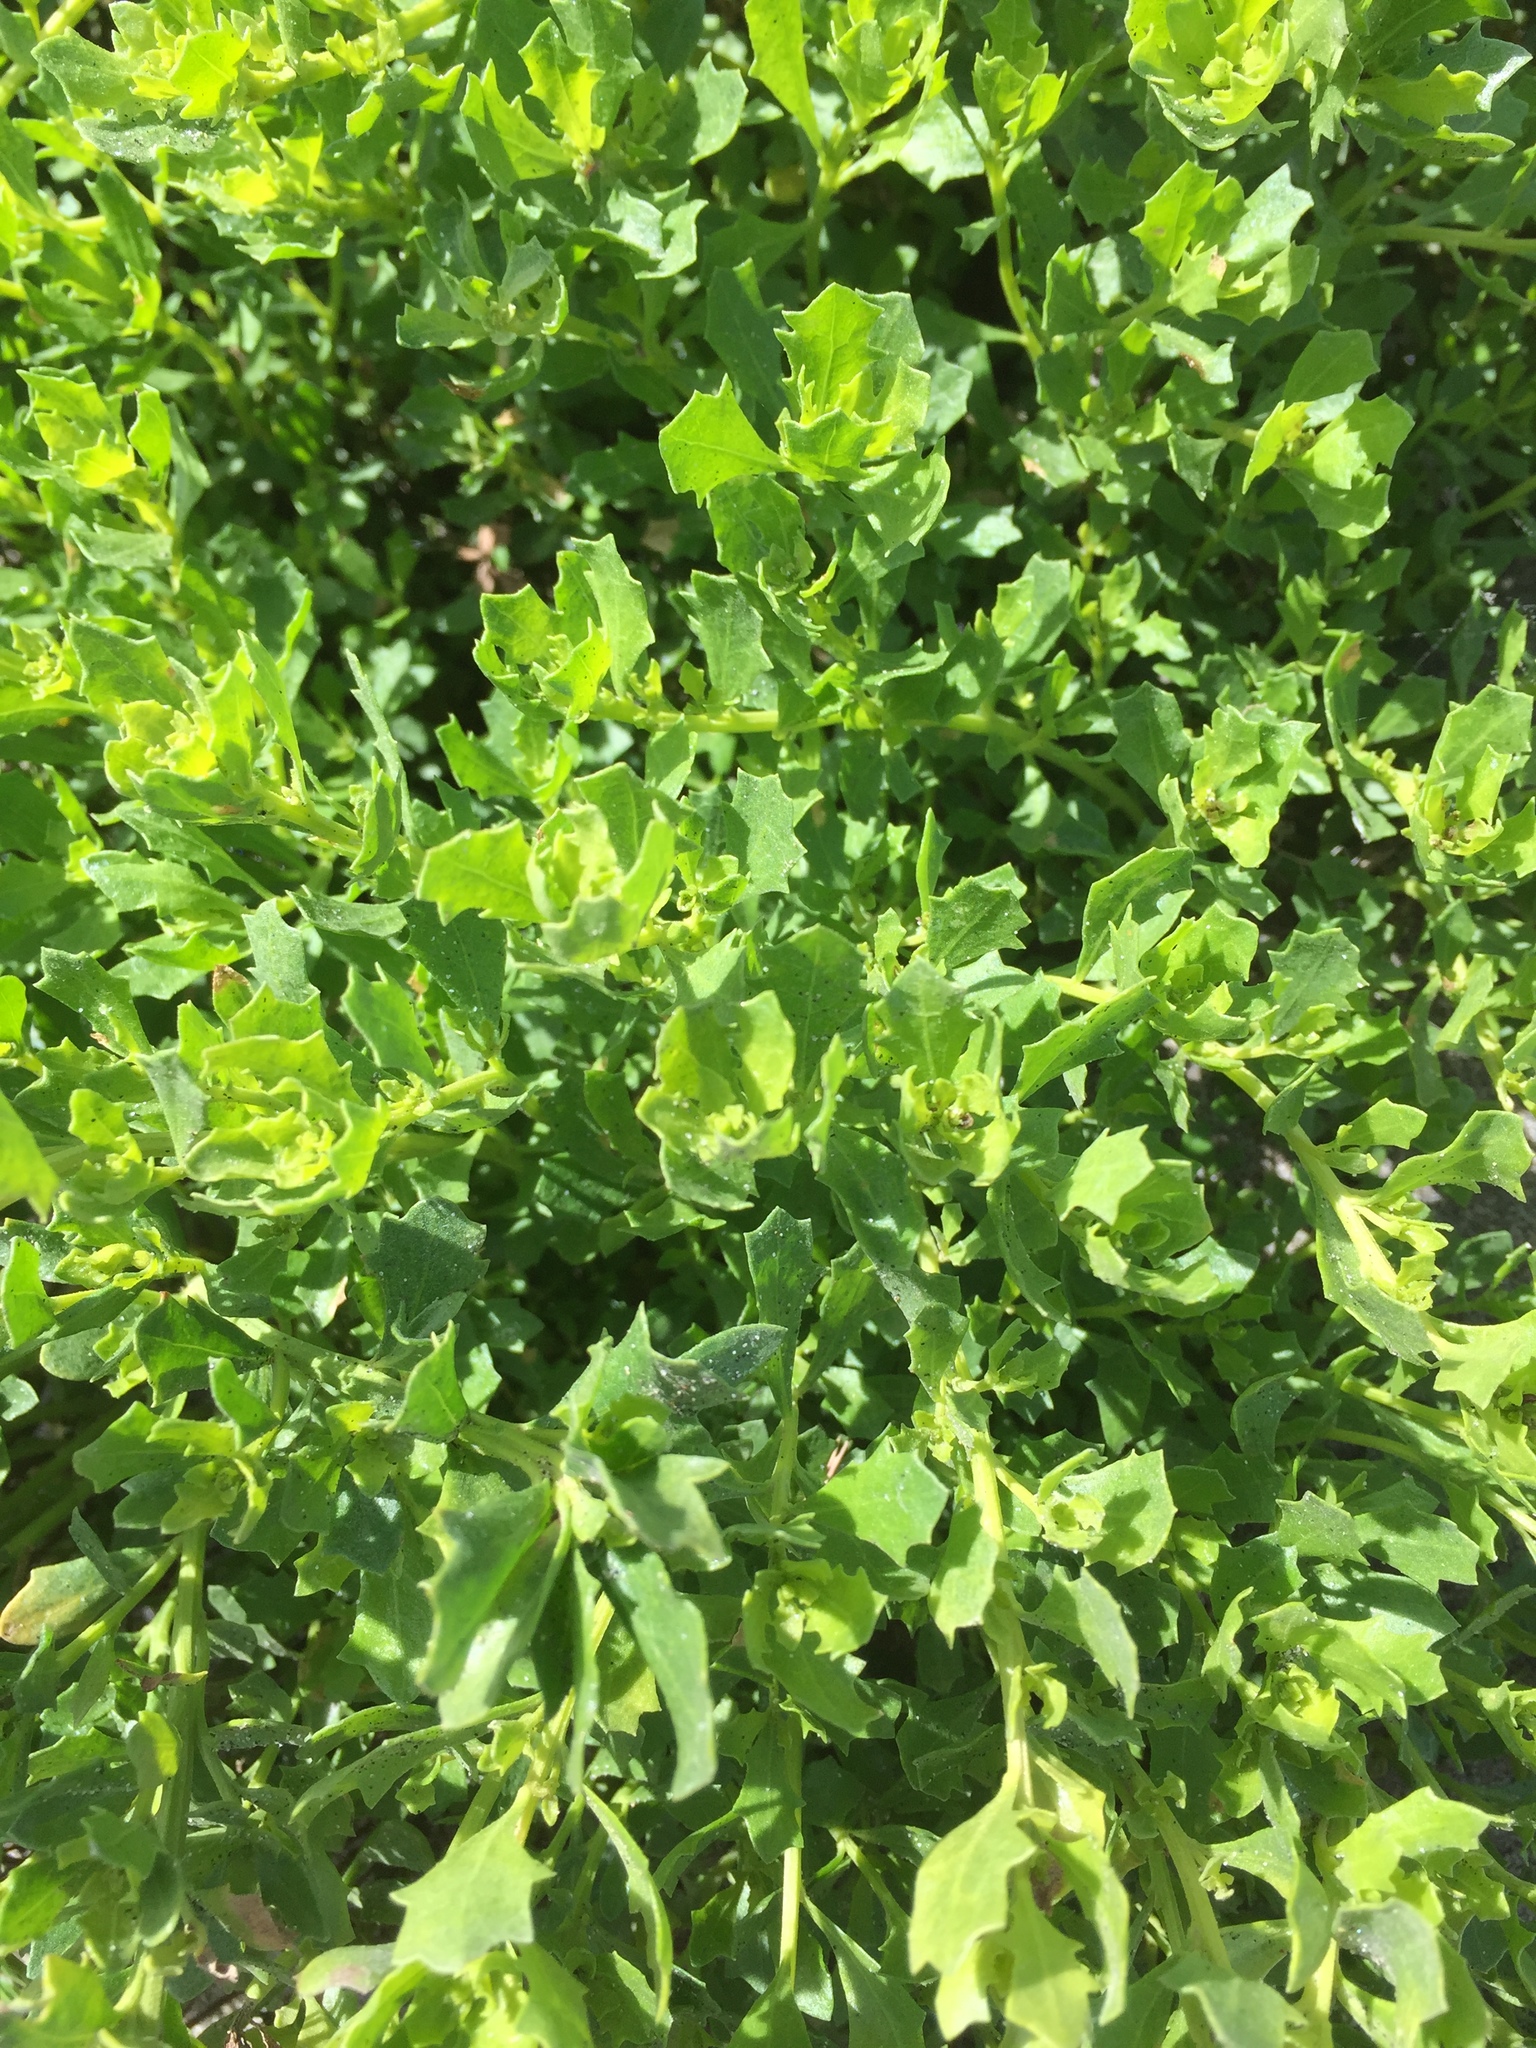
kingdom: Plantae
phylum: Tracheophyta
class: Magnoliopsida
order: Asterales
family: Asteraceae
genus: Baccharis
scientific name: Baccharis pilularis
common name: Coyotebrush
